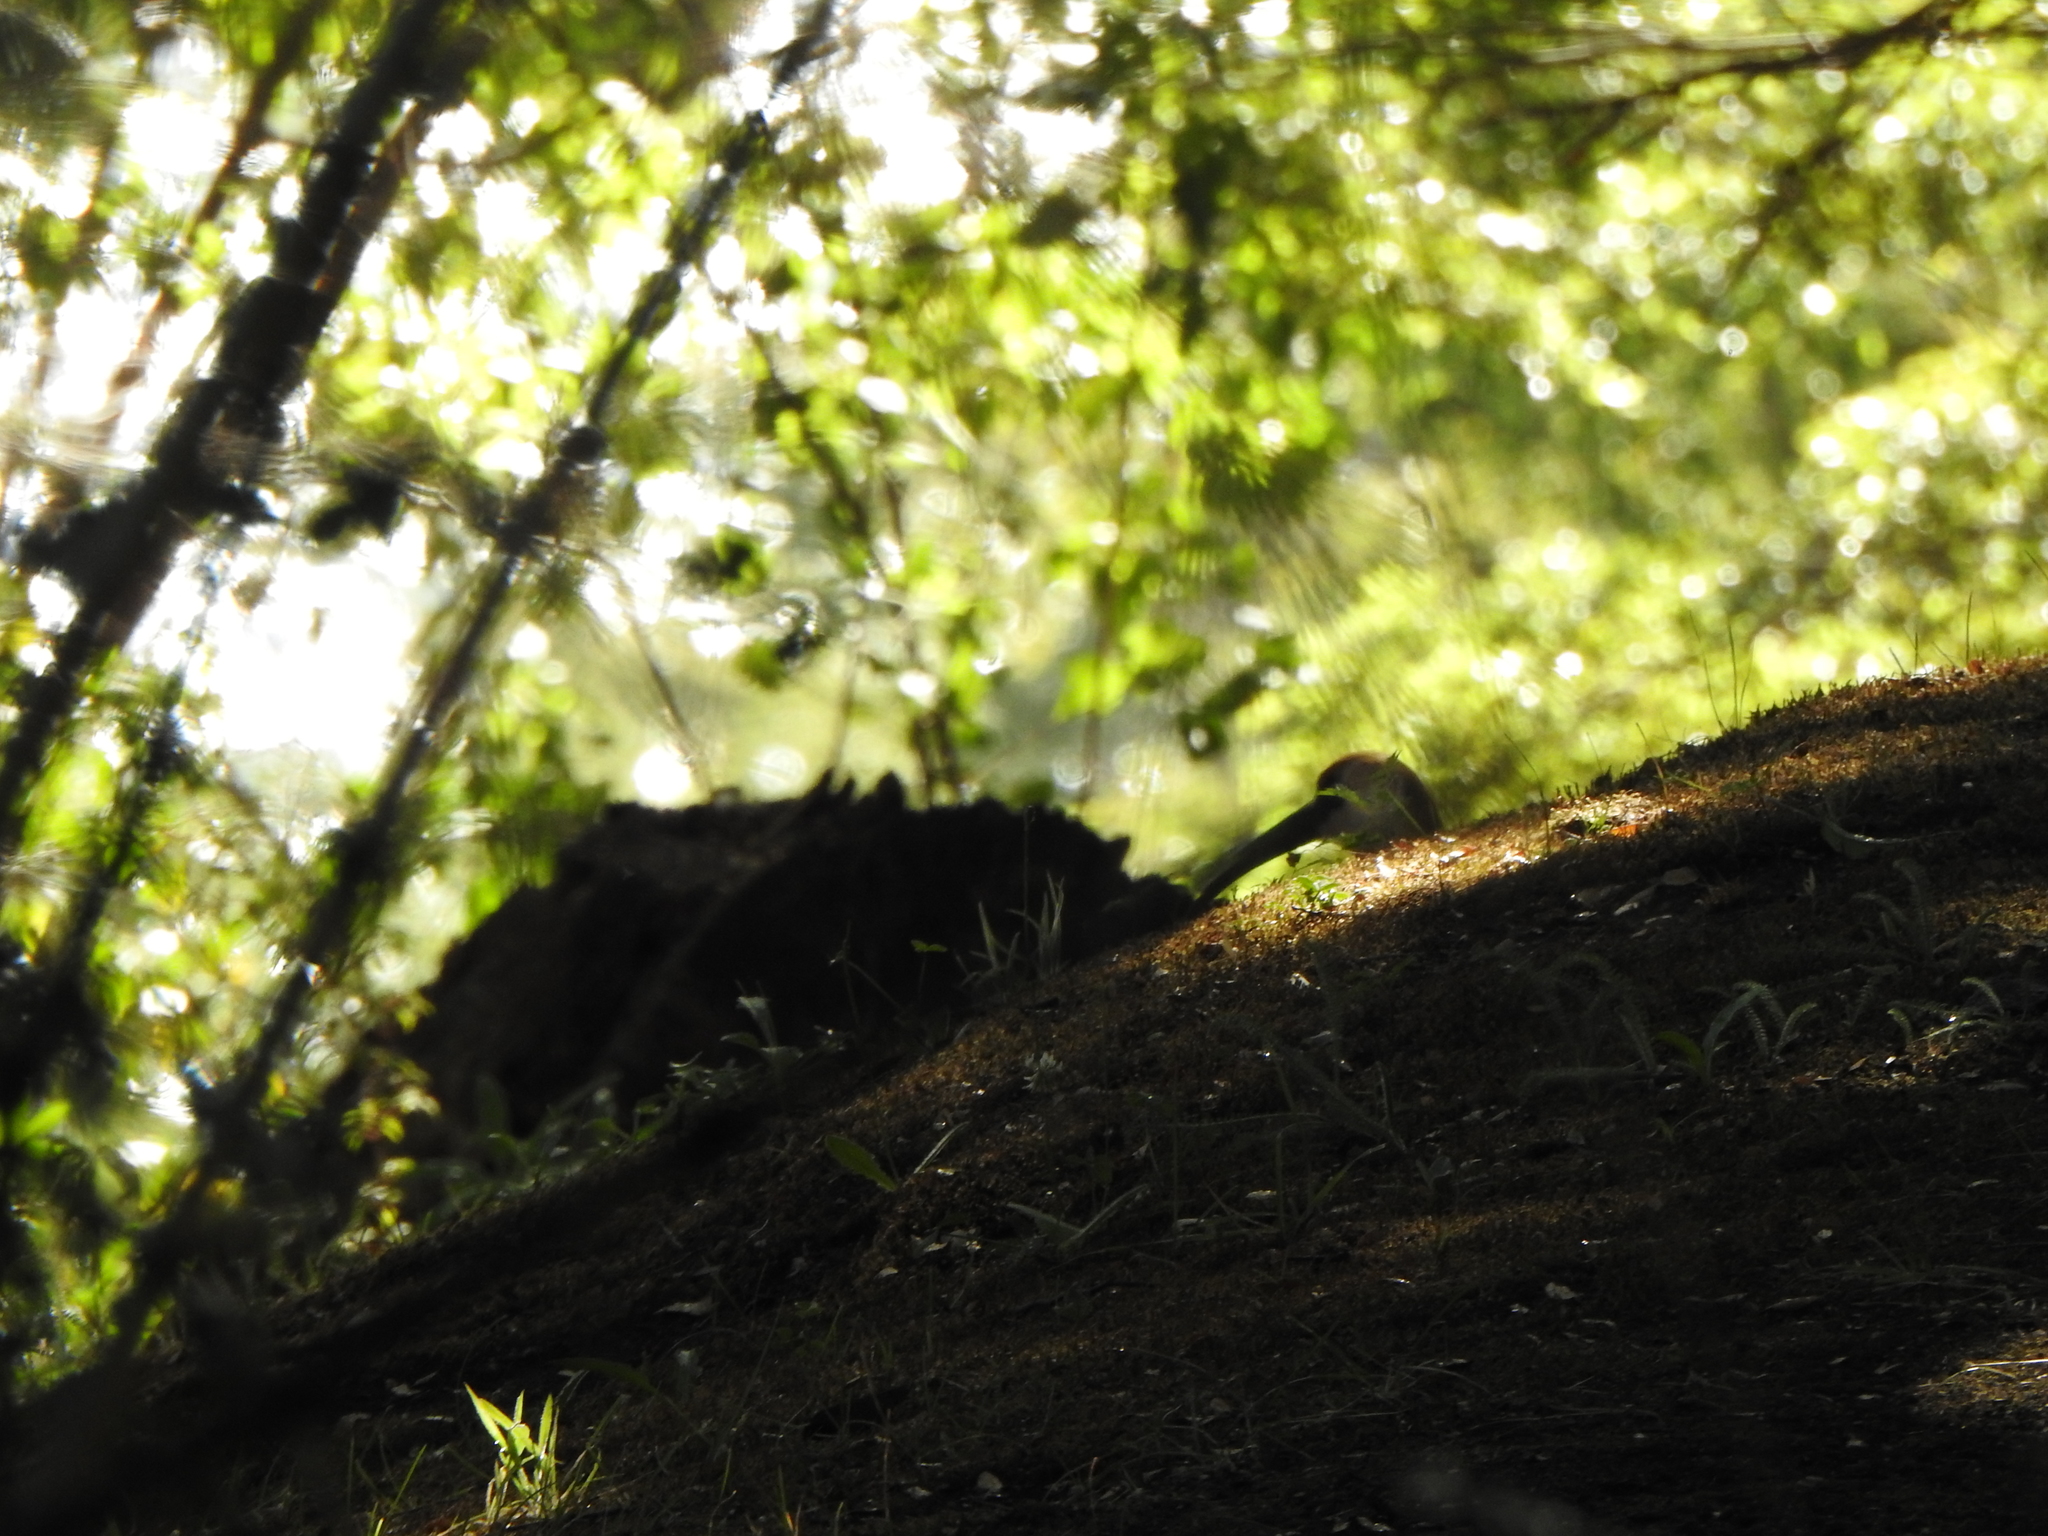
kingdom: Animalia
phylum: Chordata
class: Aves
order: Pelecaniformes
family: Threskiornithidae
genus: Theristicus
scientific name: Theristicus melanopis
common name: Black-faced ibis
